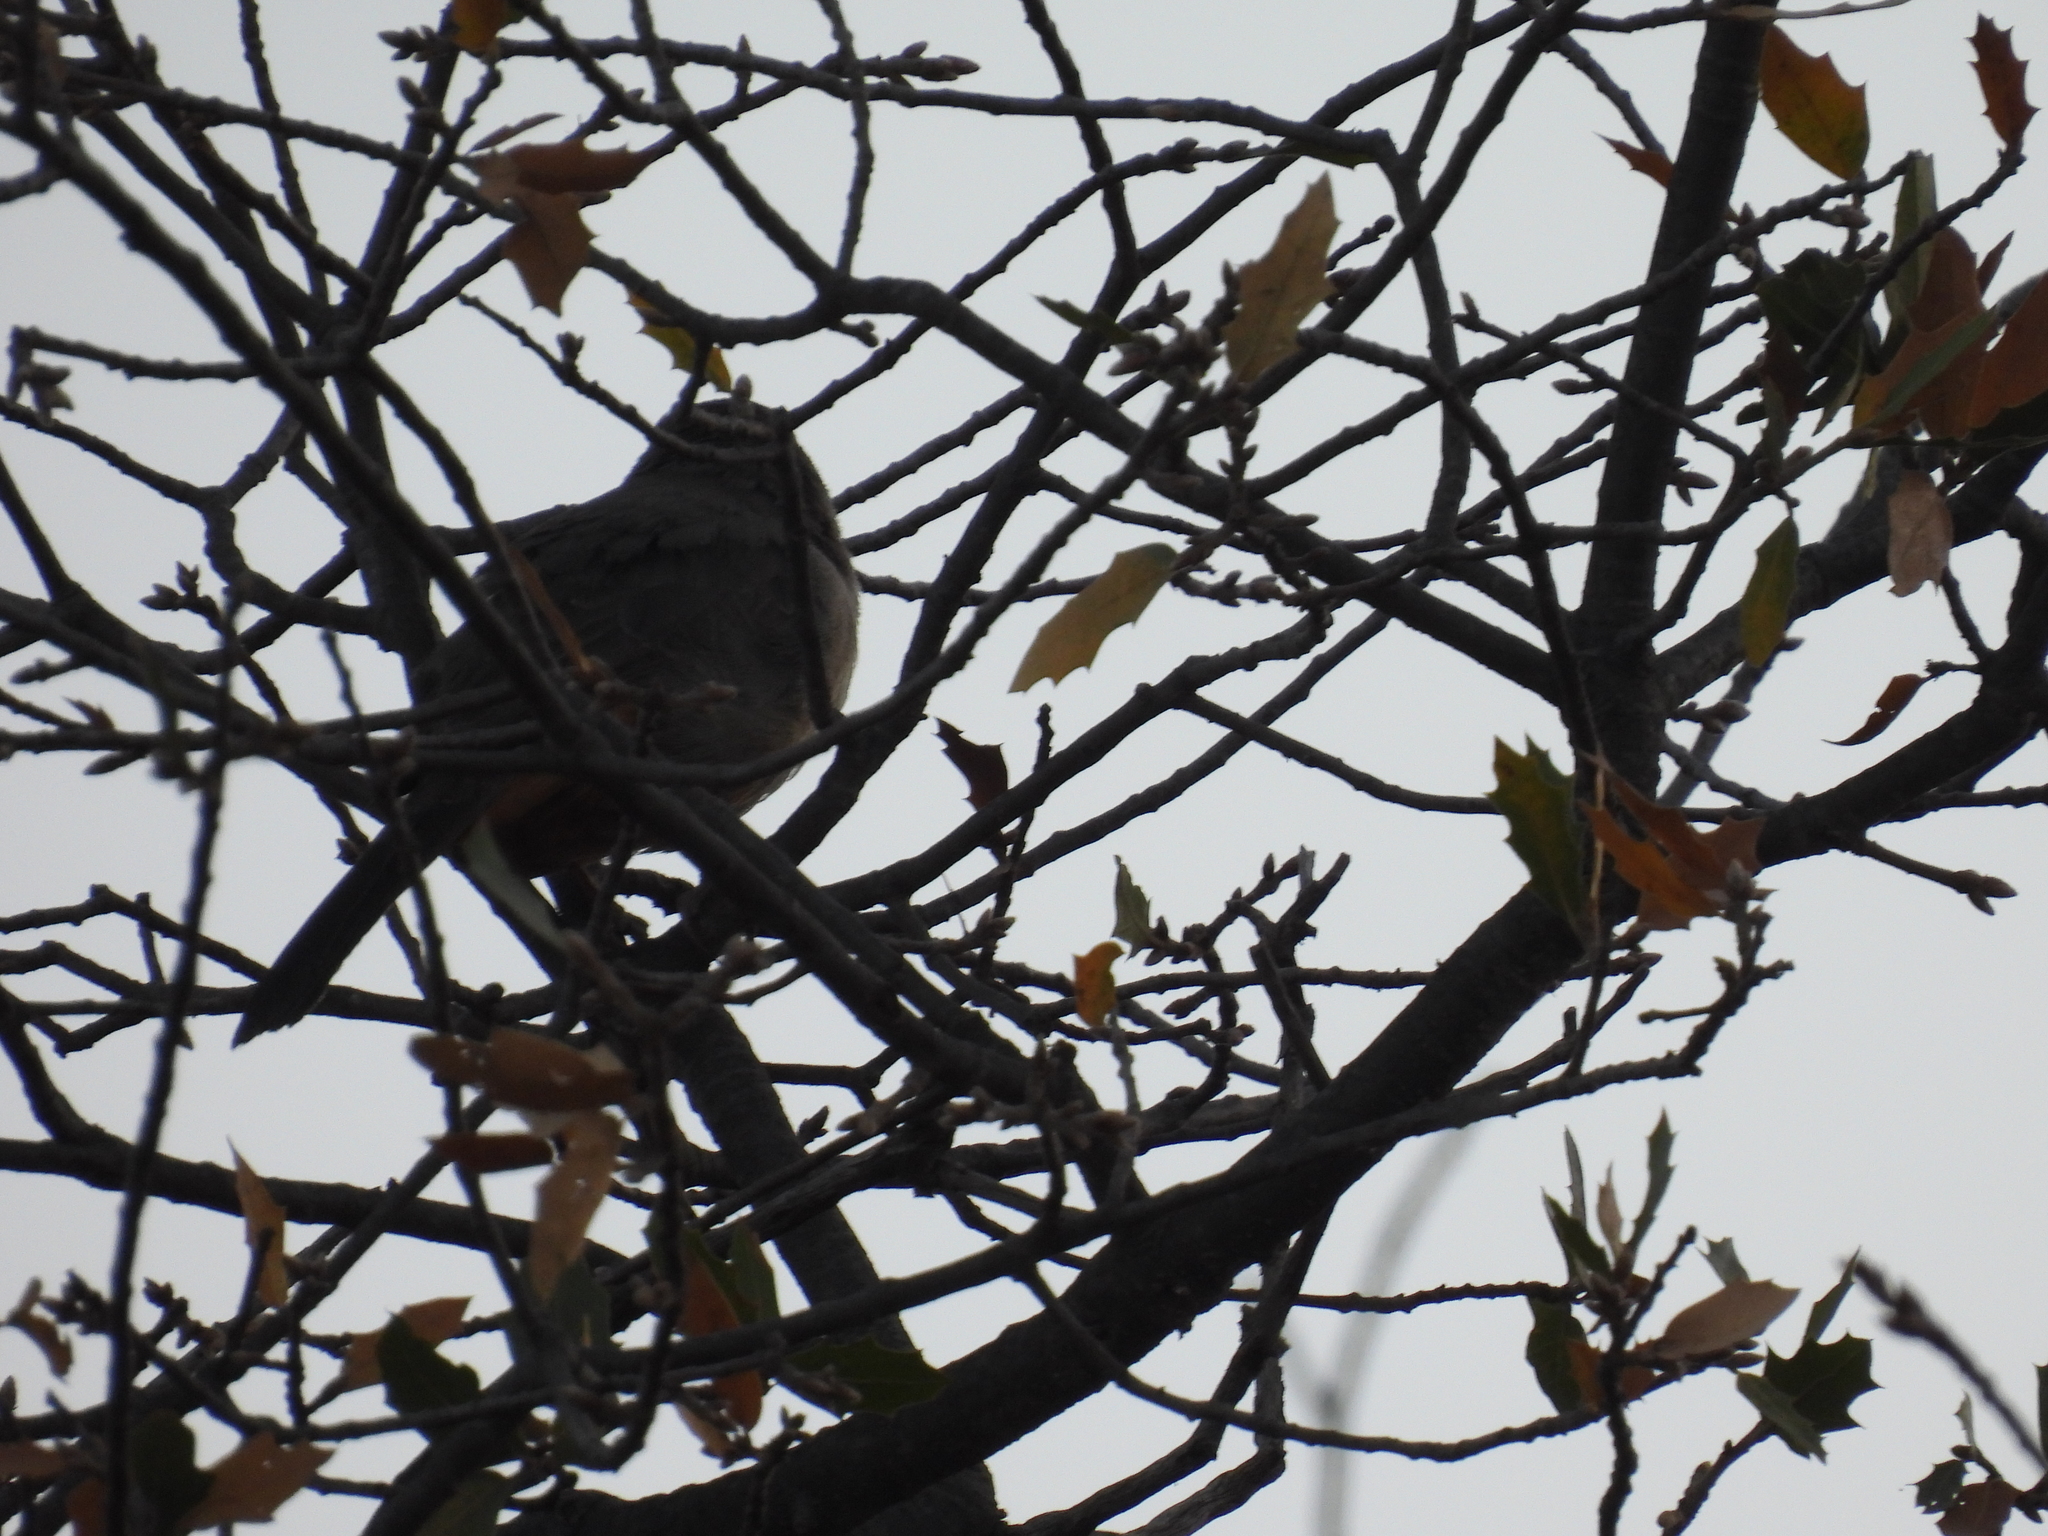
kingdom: Animalia
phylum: Chordata
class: Aves
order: Passeriformes
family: Passerellidae
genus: Melozone
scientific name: Melozone fusca
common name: Canyon towhee
